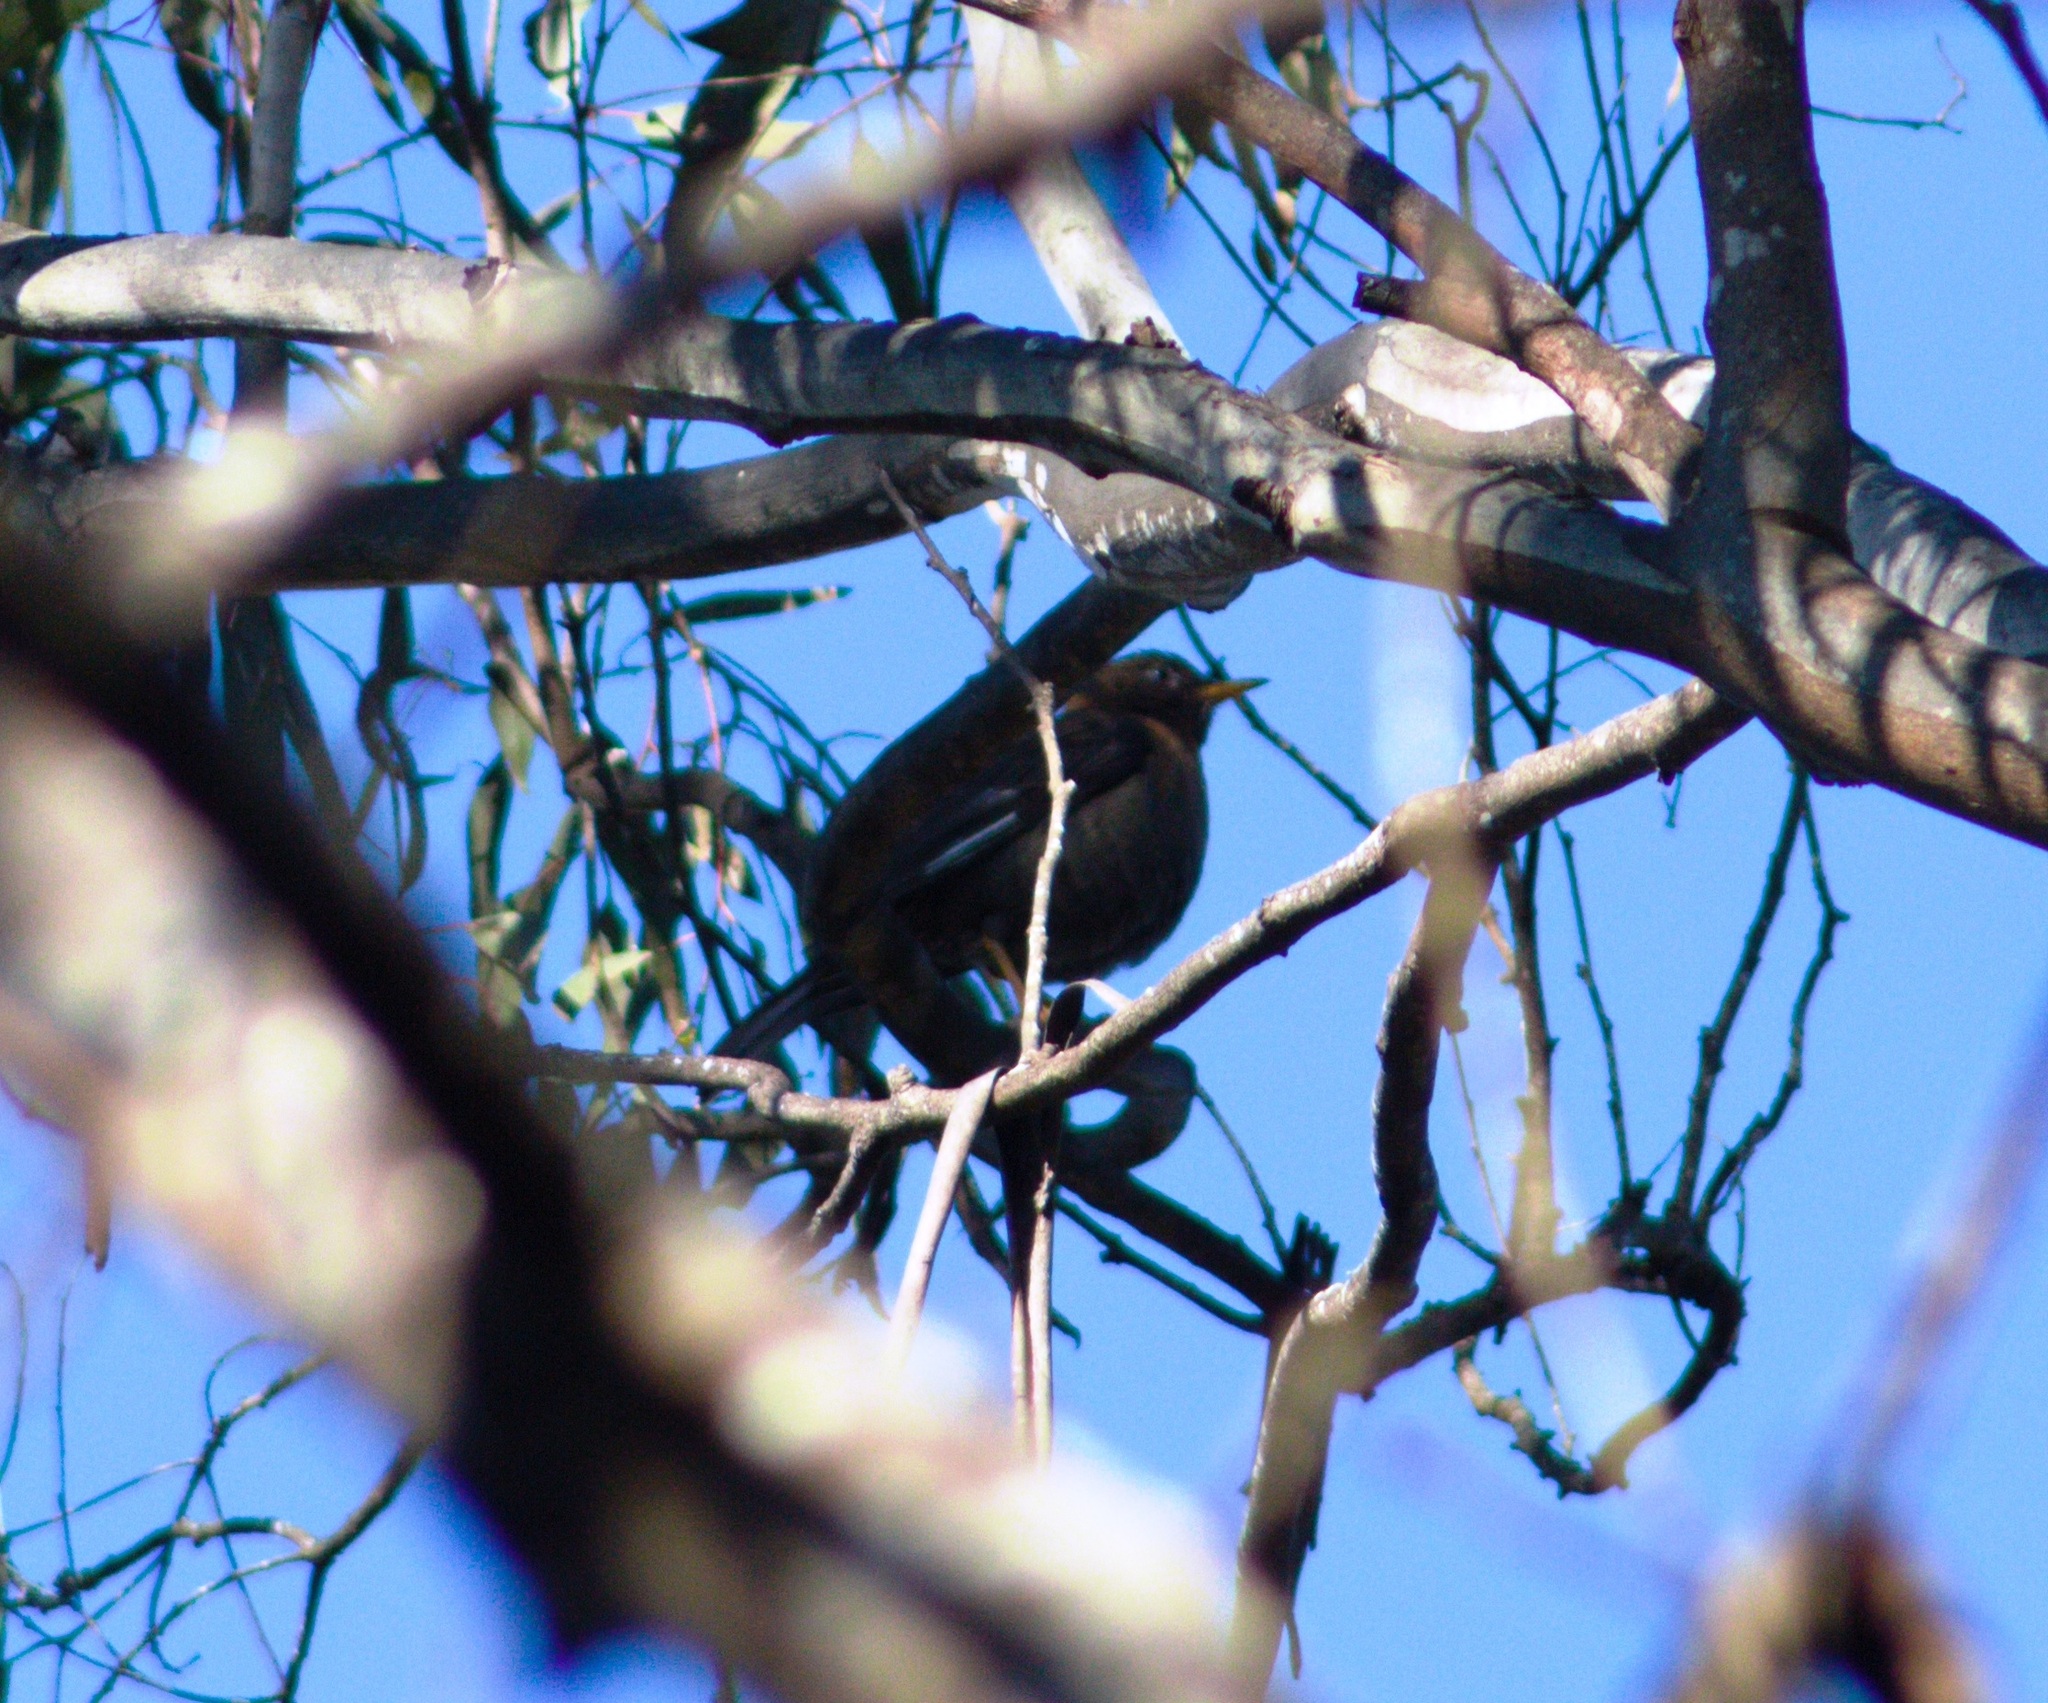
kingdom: Animalia
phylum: Chordata
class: Aves
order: Passeriformes
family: Turdidae
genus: Turdus
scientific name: Turdus rufitorques
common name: Rufous-collared thrush
